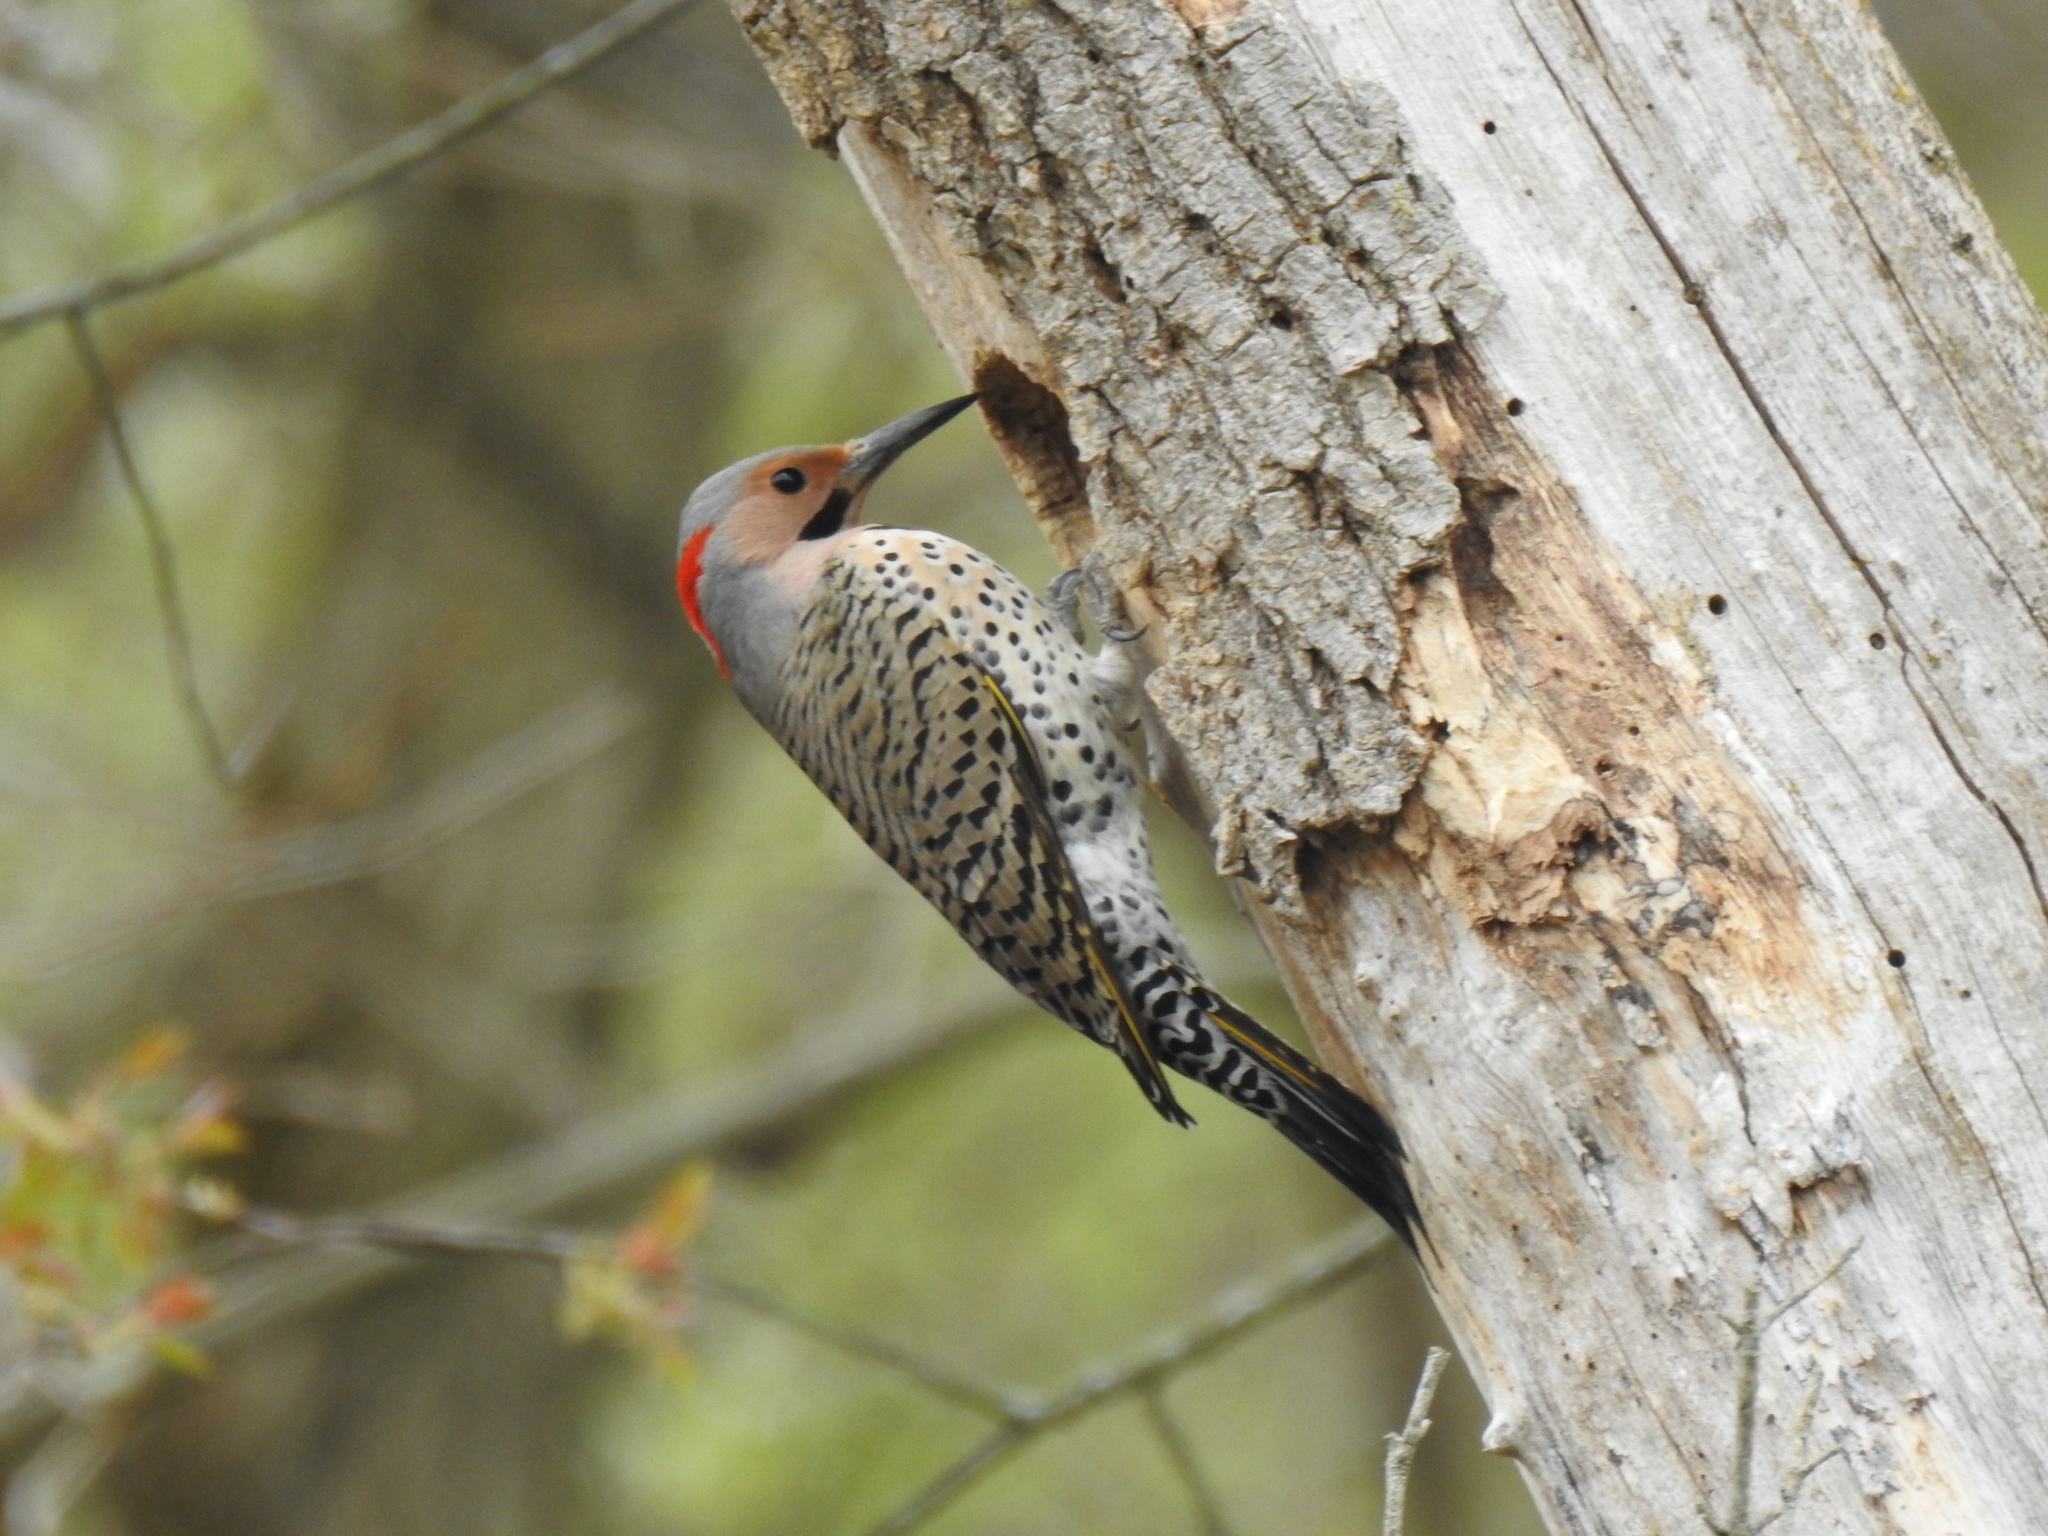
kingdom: Animalia
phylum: Chordata
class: Aves
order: Piciformes
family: Picidae
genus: Colaptes
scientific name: Colaptes auratus
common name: Northern flicker
